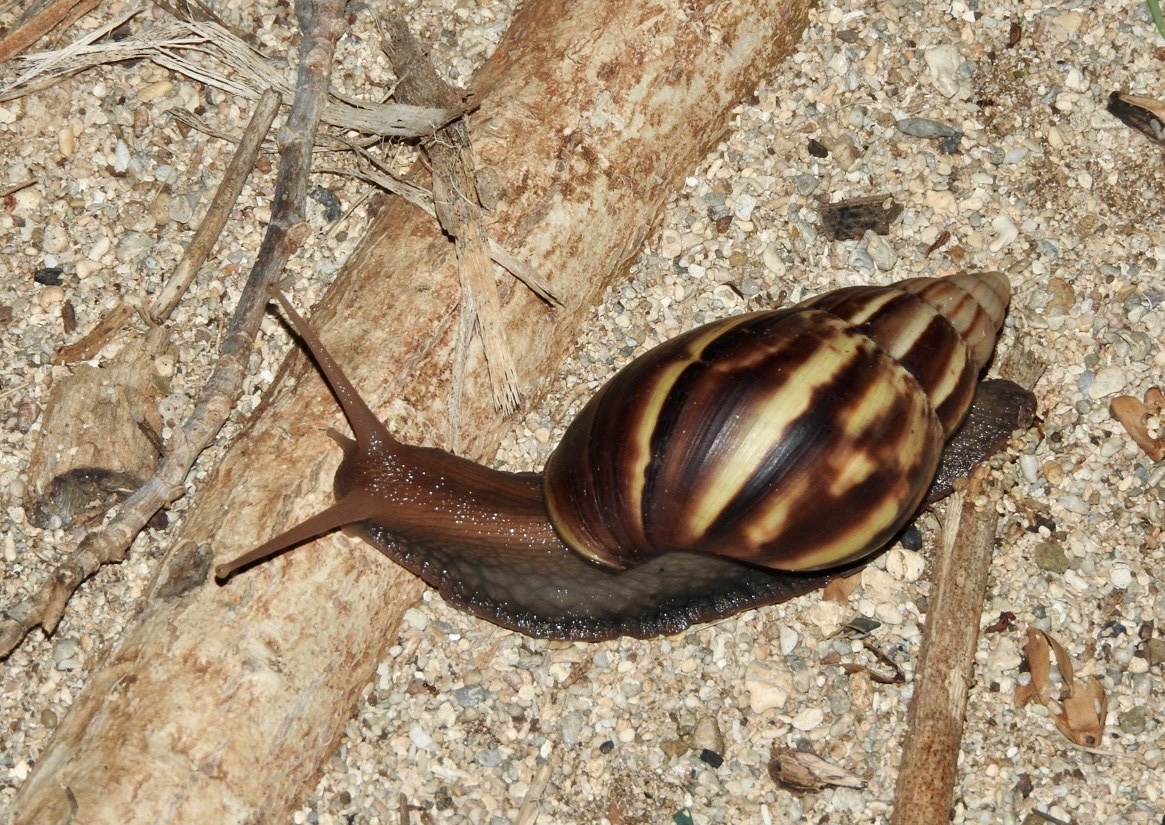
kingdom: Animalia
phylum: Mollusca
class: Gastropoda
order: Stylommatophora
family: Achatinidae
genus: Lissachatina
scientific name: Lissachatina fulica
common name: Giant african snail
